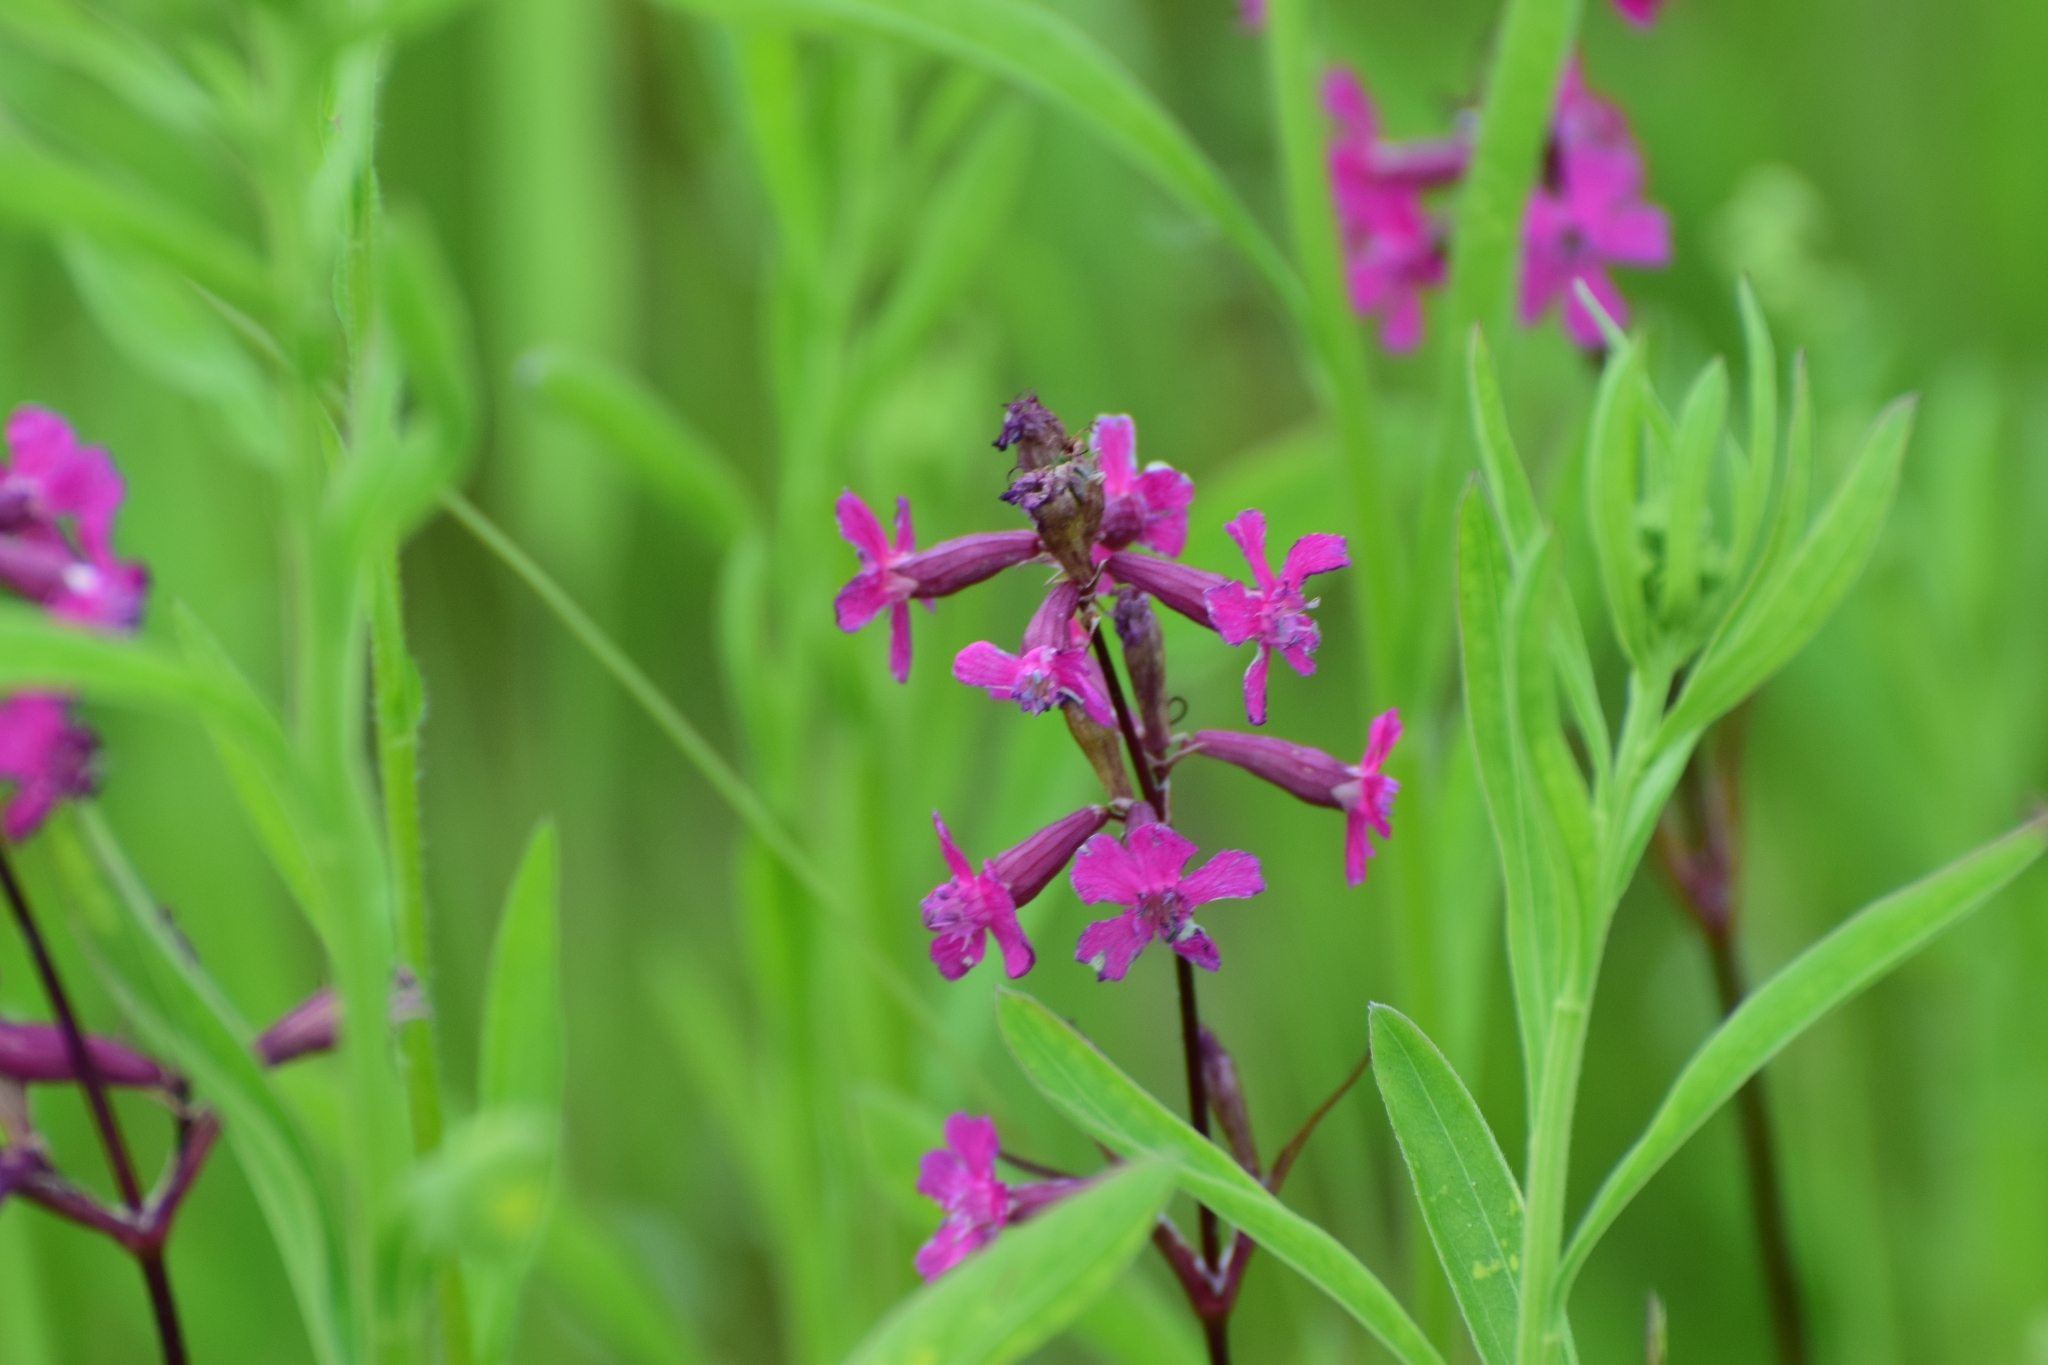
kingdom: Plantae
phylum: Tracheophyta
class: Magnoliopsida
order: Caryophyllales
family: Caryophyllaceae
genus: Viscaria
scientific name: Viscaria vulgaris
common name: Clammy campion
